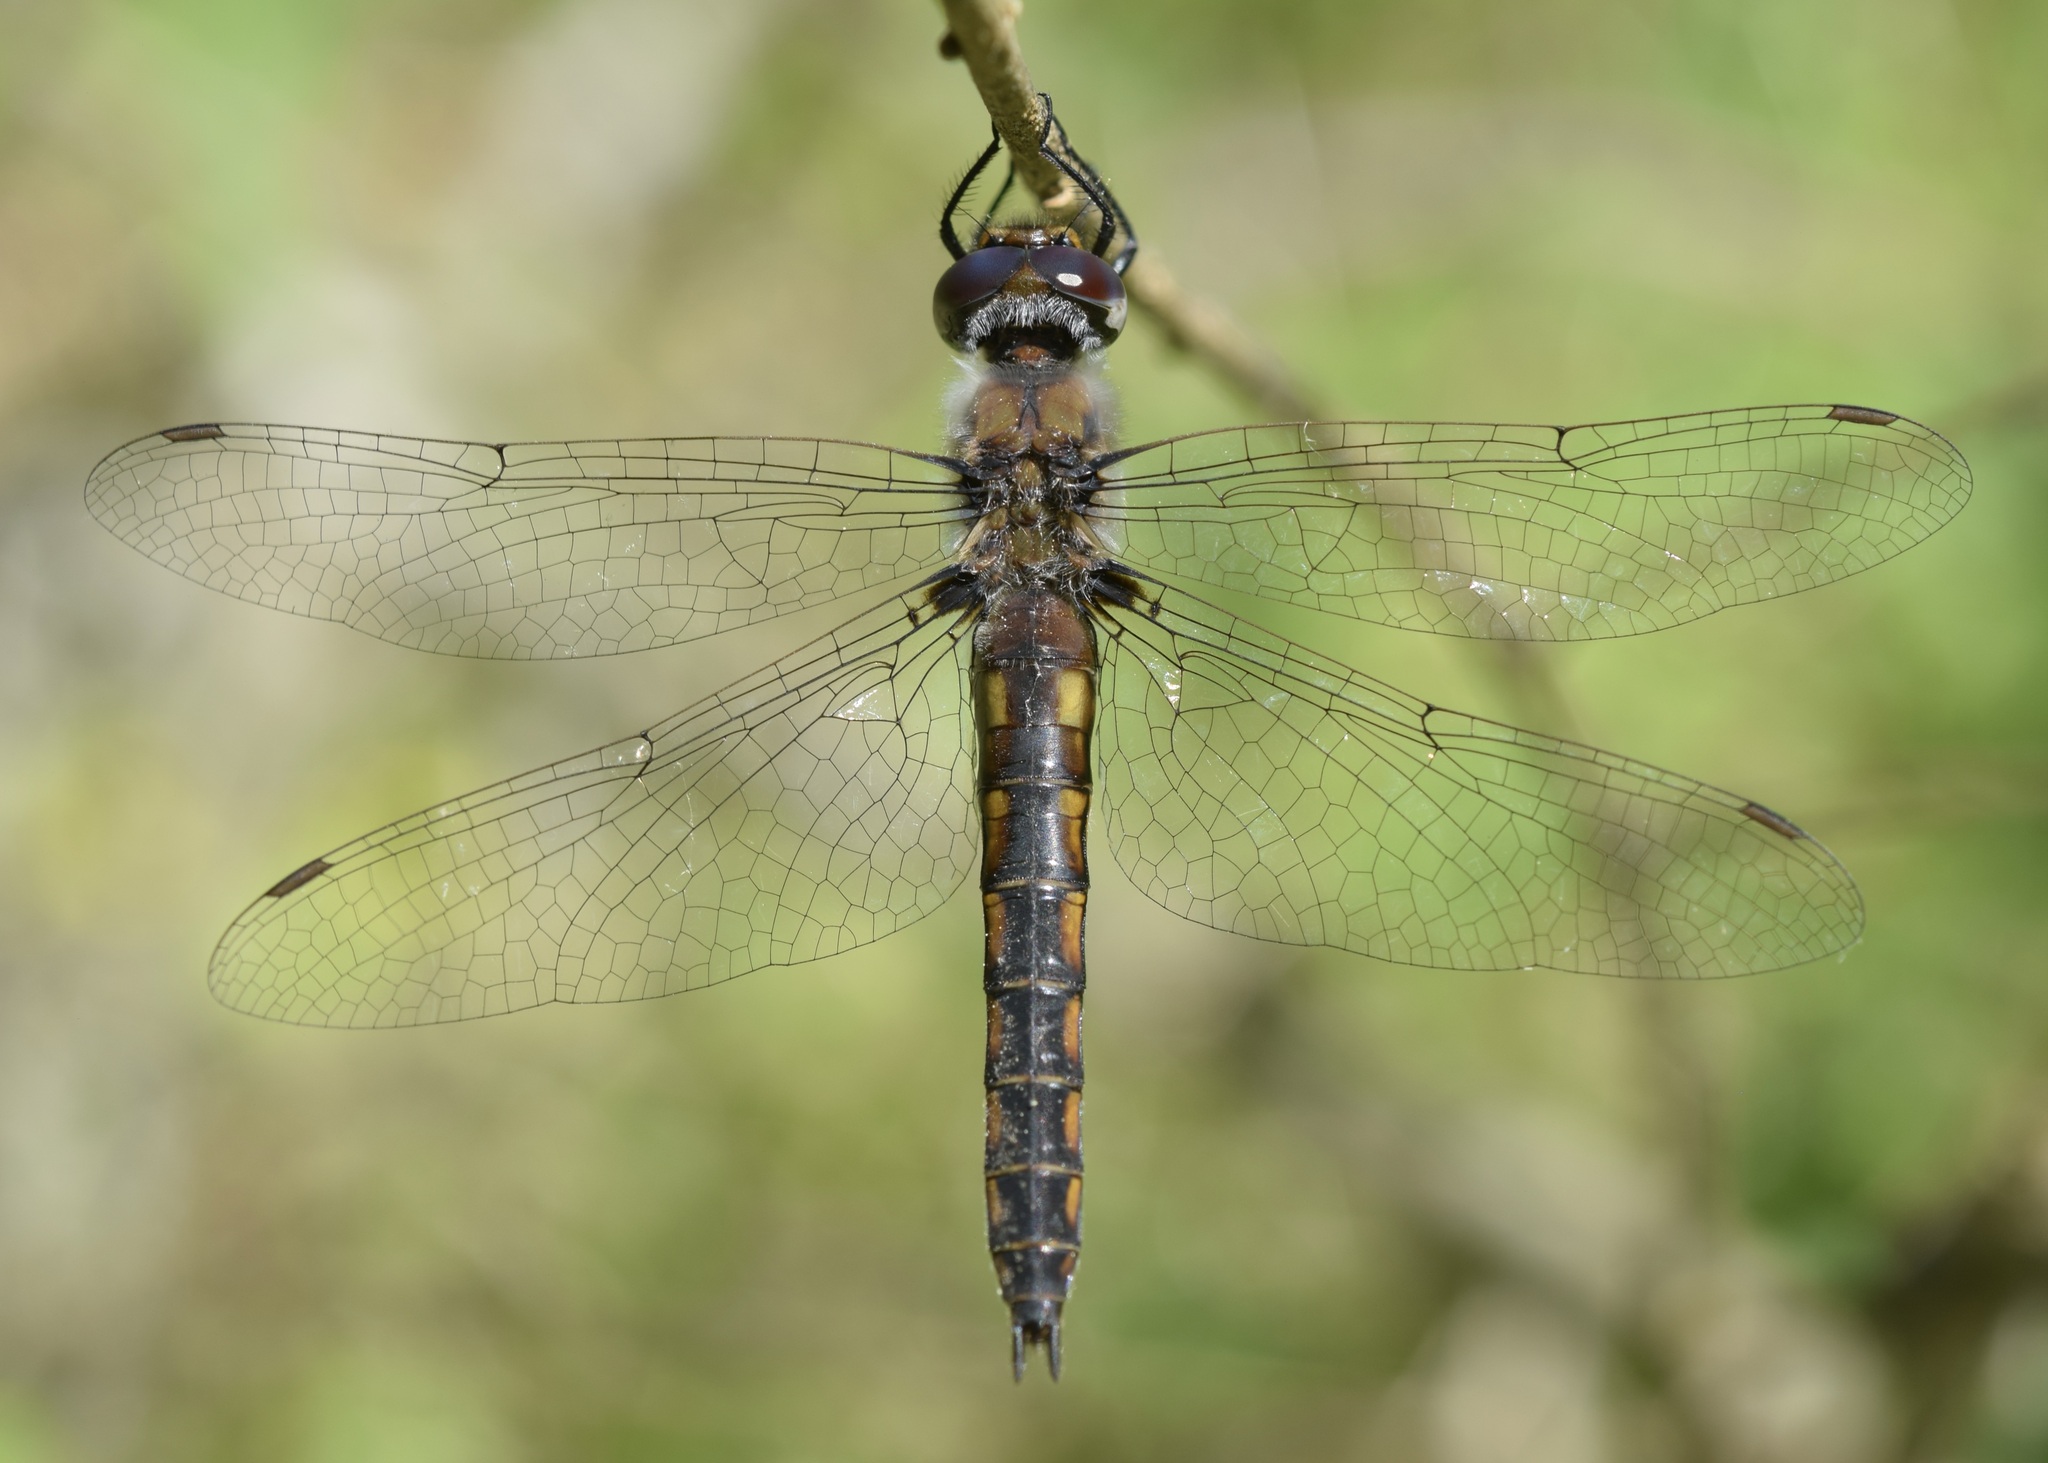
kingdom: Animalia
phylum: Arthropoda
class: Insecta
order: Odonata
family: Corduliidae
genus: Epitheca
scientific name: Epitheca cynosura
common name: Common baskettail
